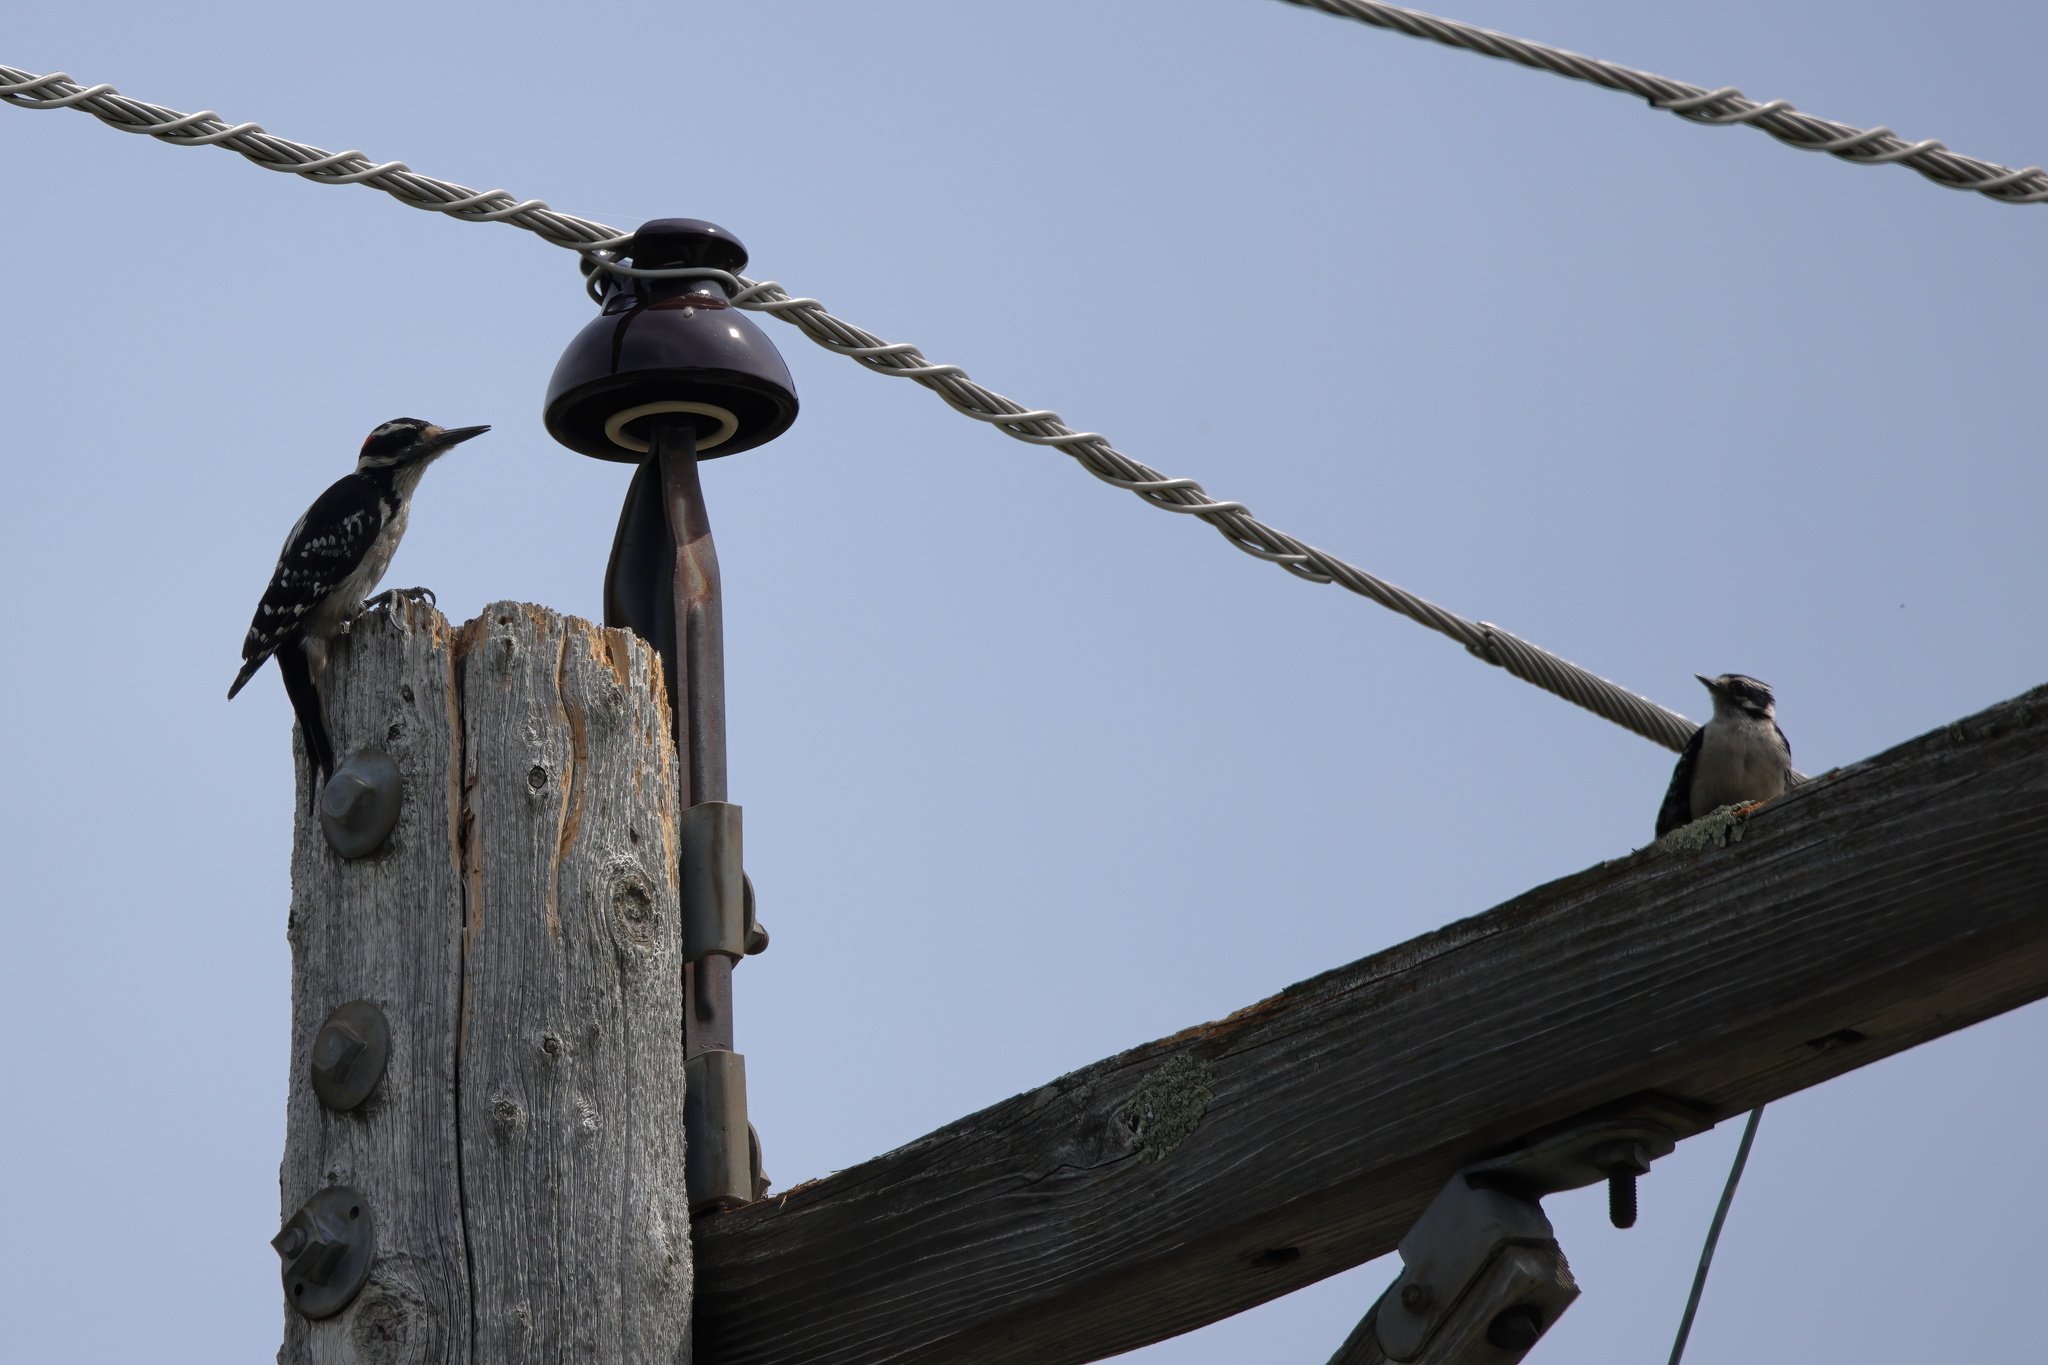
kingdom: Animalia
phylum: Chordata
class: Aves
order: Piciformes
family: Picidae
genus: Leuconotopicus
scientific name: Leuconotopicus villosus
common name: Hairy woodpecker
